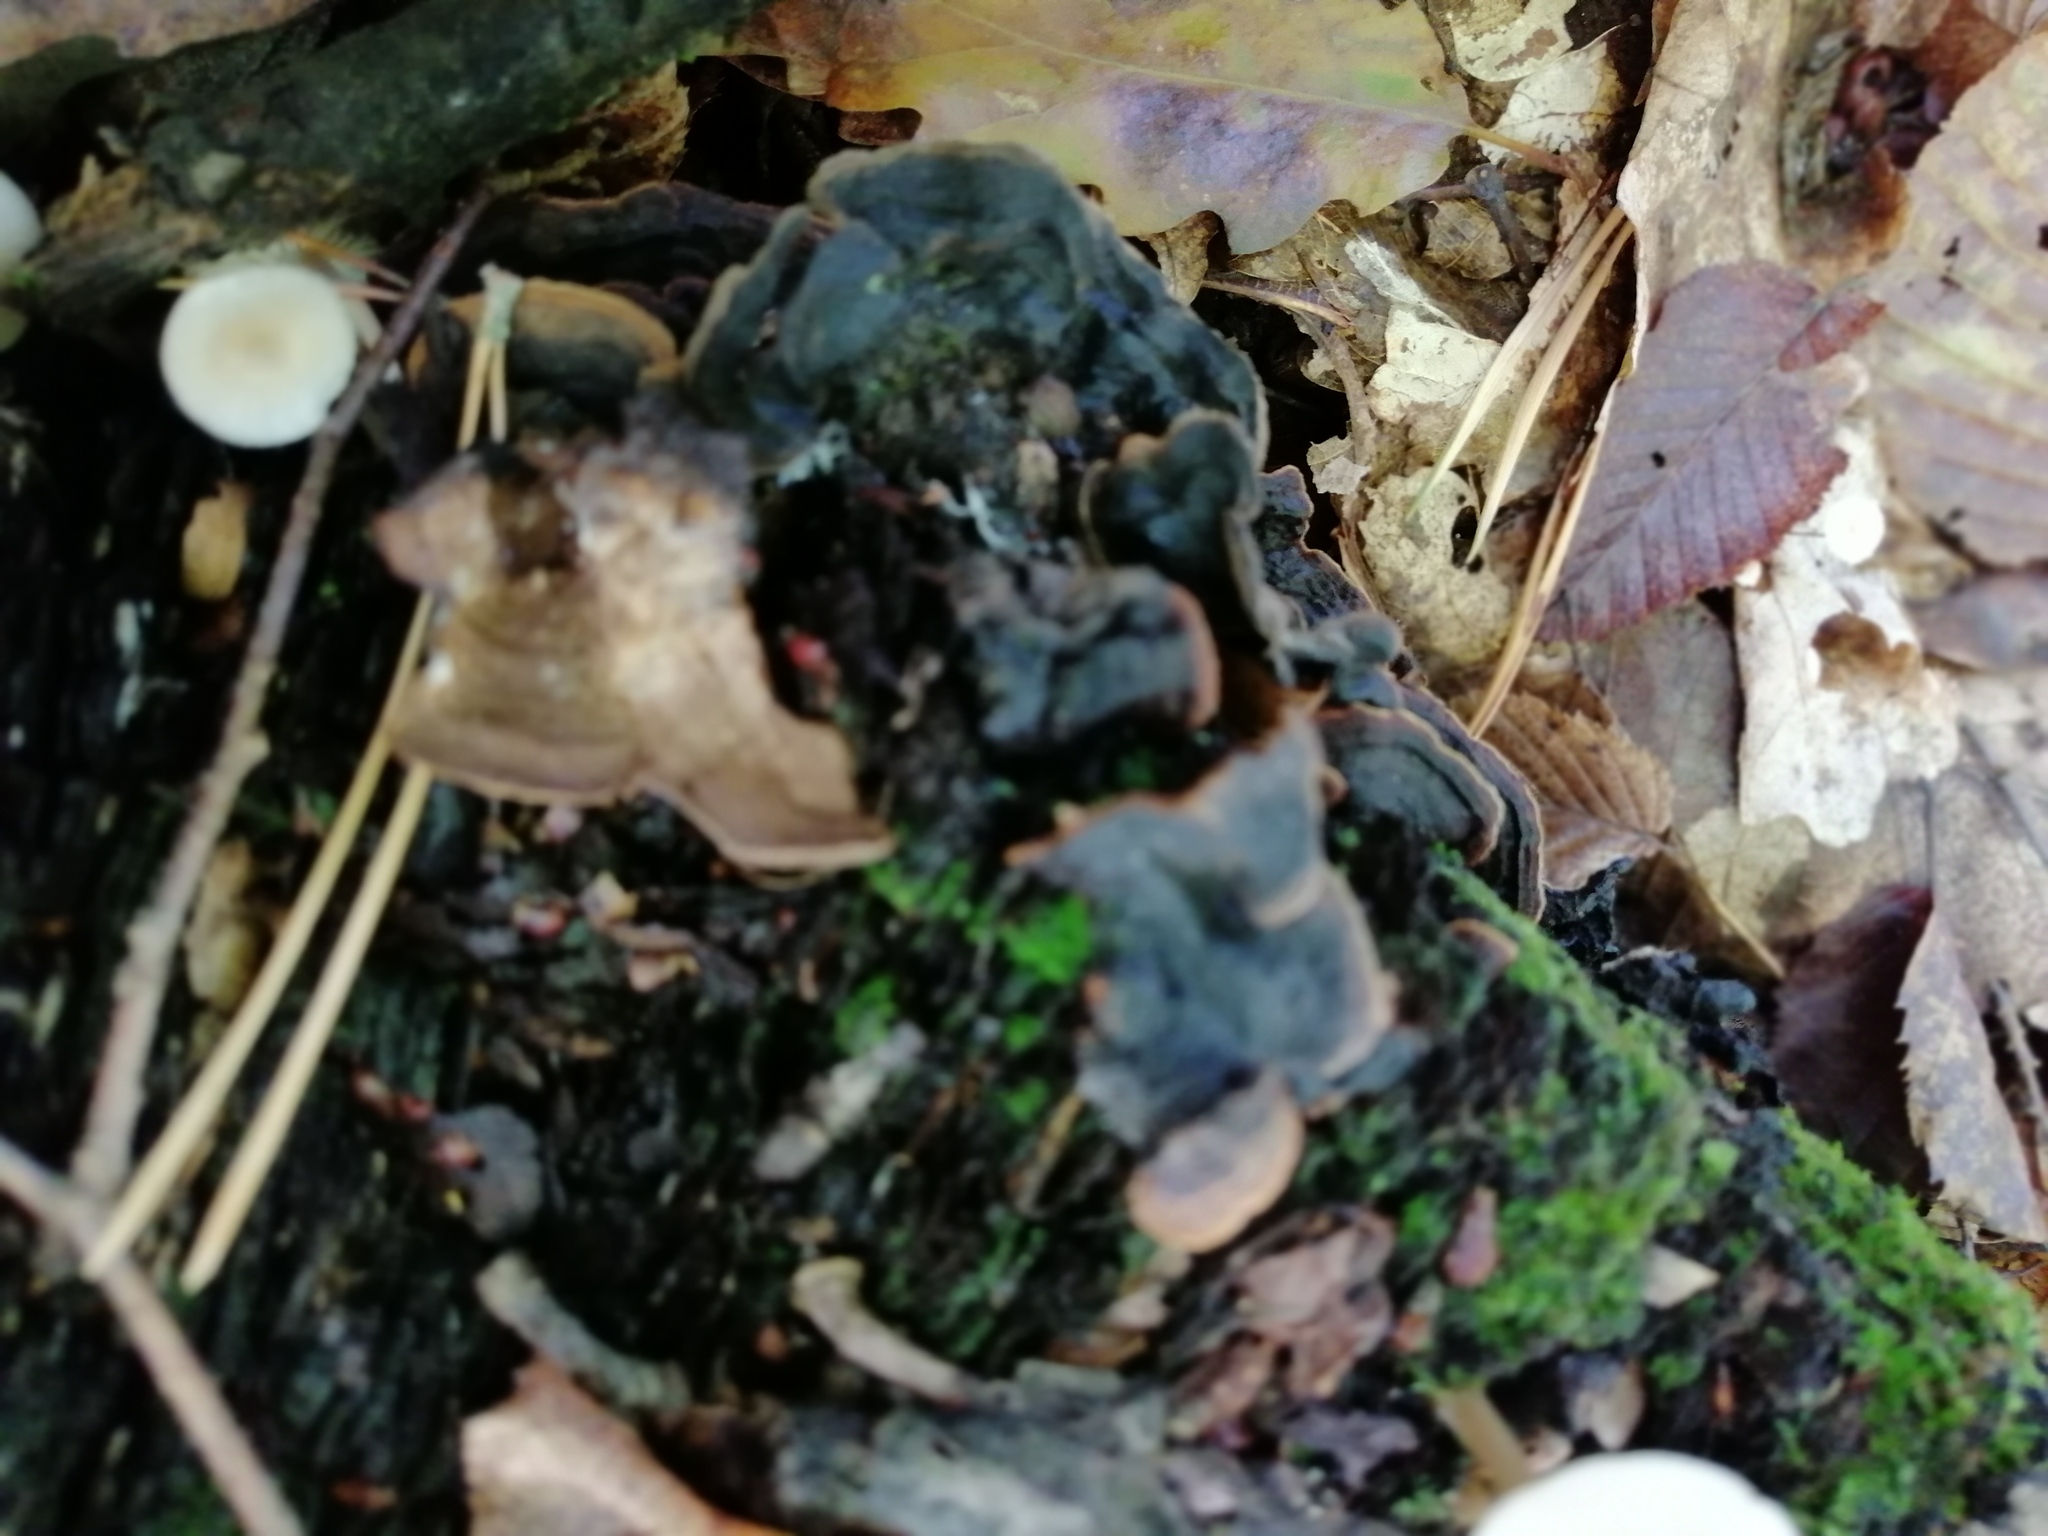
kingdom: Fungi
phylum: Basidiomycota
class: Agaricomycetes
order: Hymenochaetales
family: Hymenochaetaceae
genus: Hymenochaete
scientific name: Hymenochaete rubiginosa
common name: Oak curtain crust
